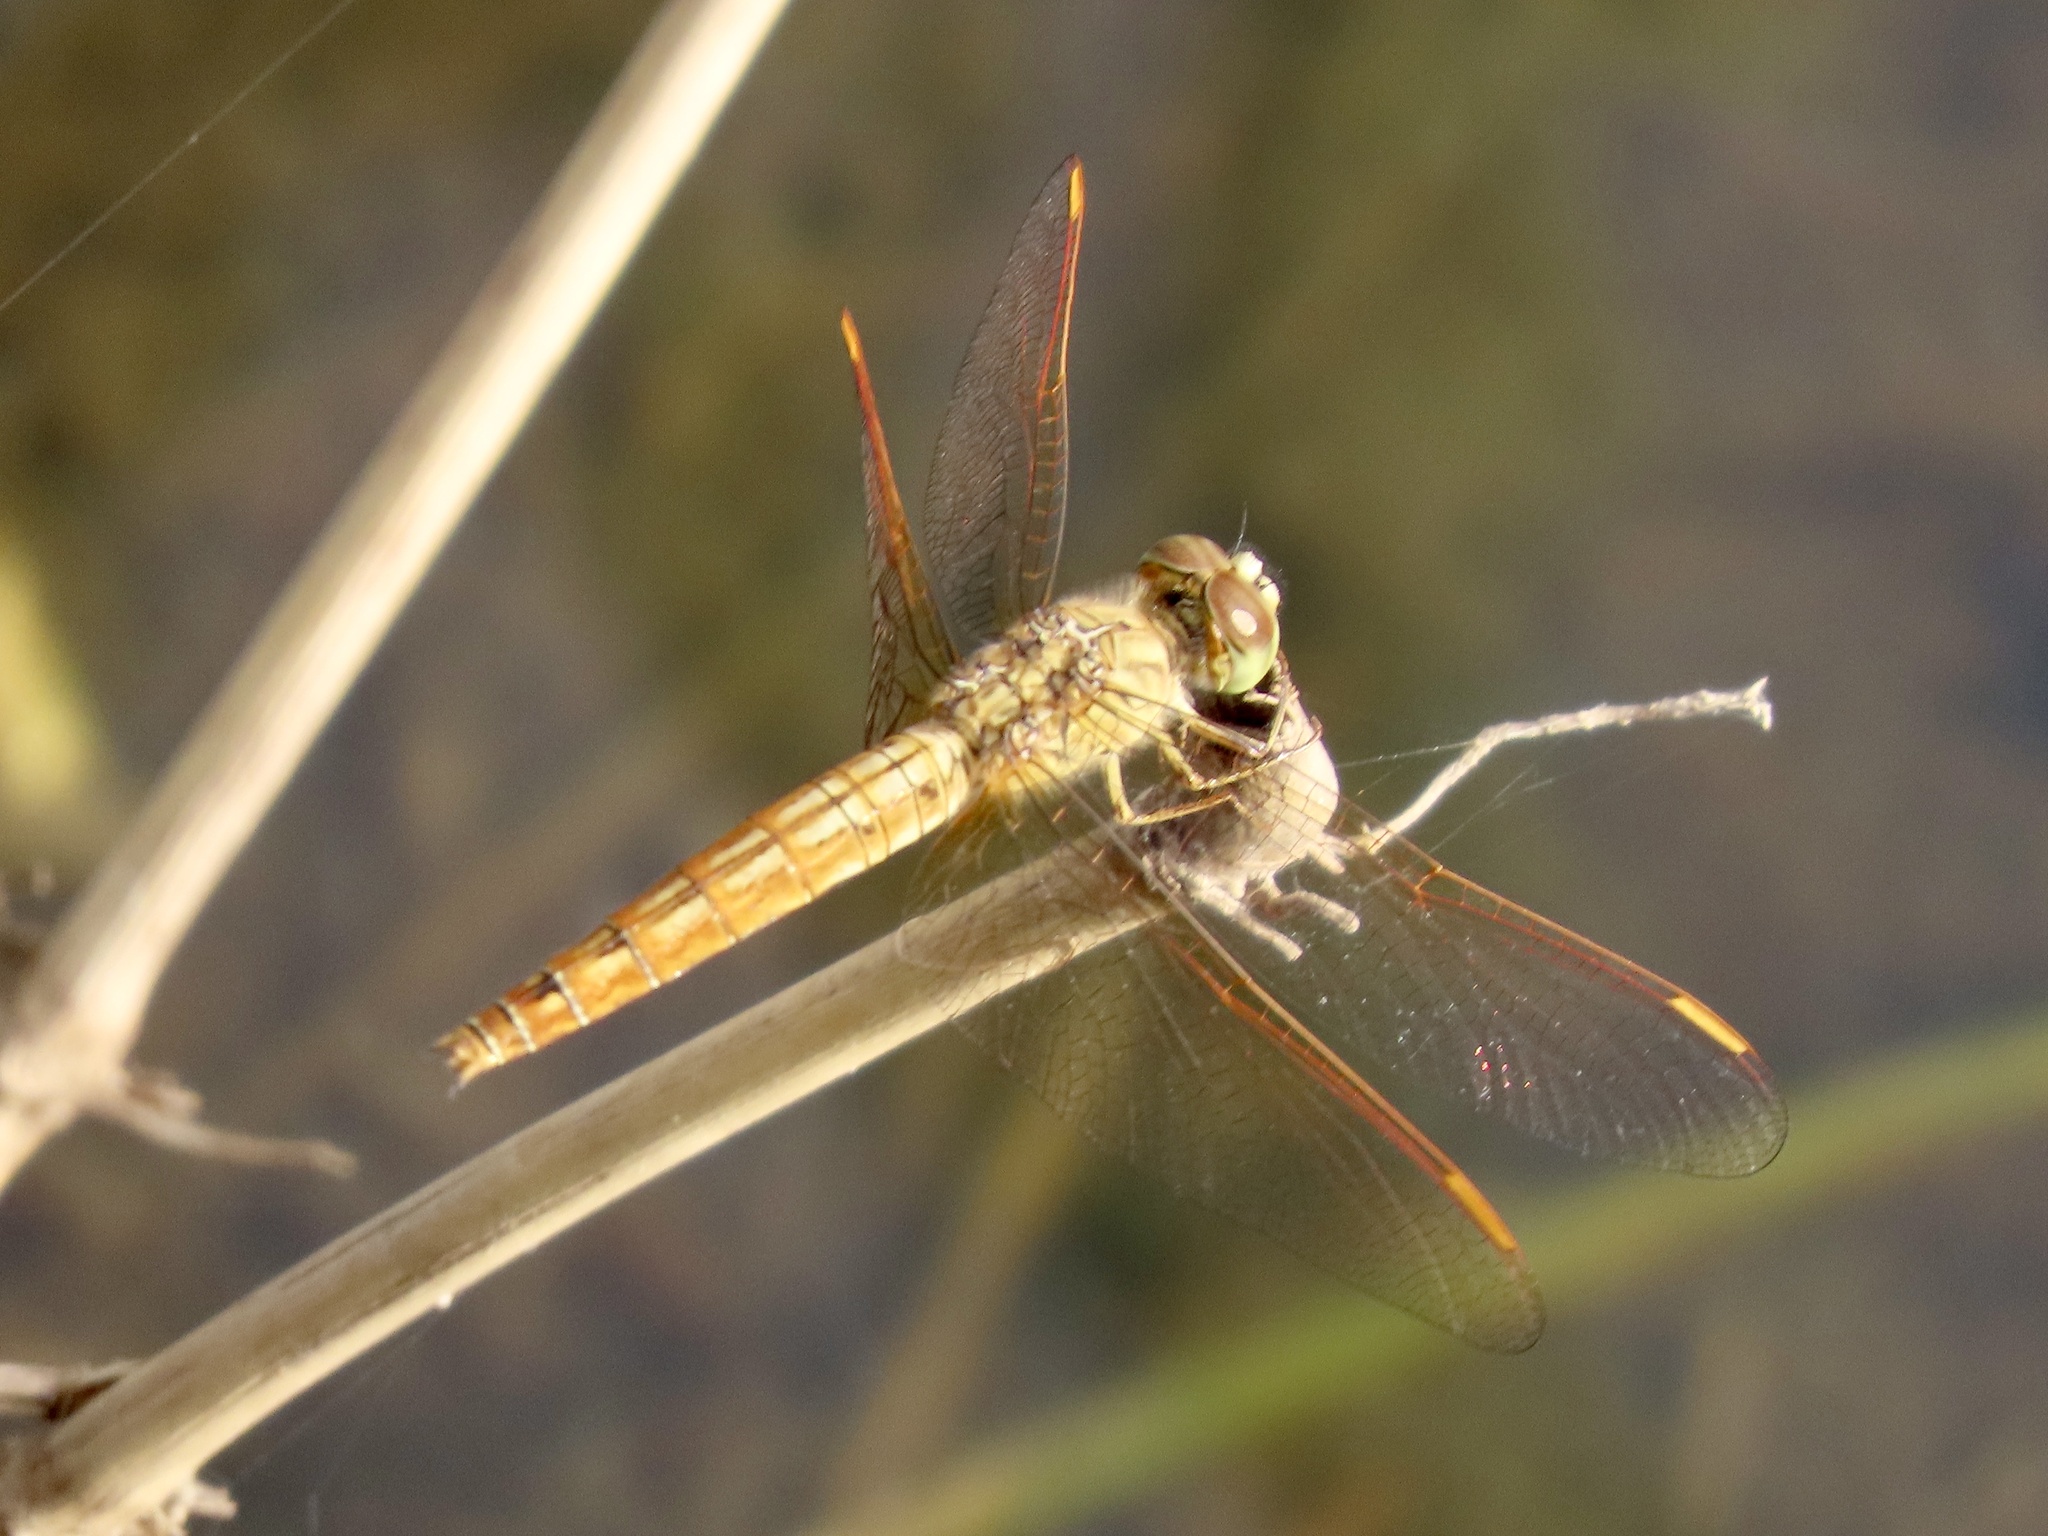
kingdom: Animalia
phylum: Arthropoda
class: Insecta
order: Odonata
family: Libellulidae
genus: Brachythemis
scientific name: Brachythemis contaminata
